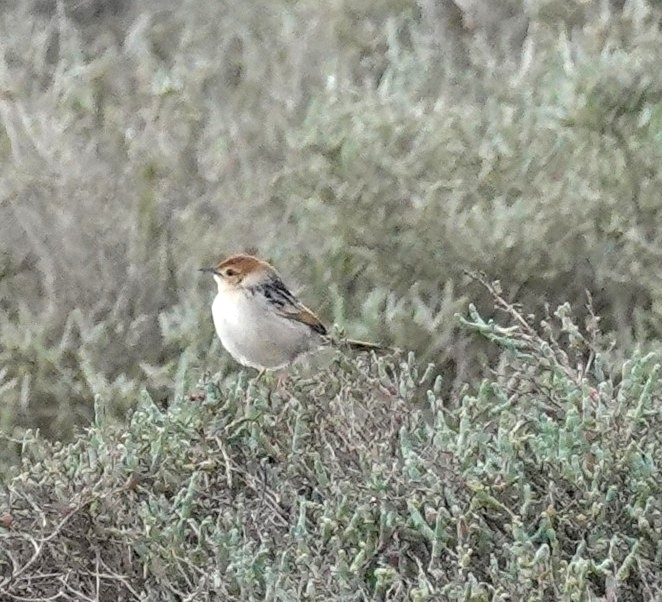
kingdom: Animalia
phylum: Chordata
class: Aves
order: Passeriformes
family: Cisticolidae
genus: Cisticola
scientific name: Cisticola tinniens
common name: Levaillant's cisticola
